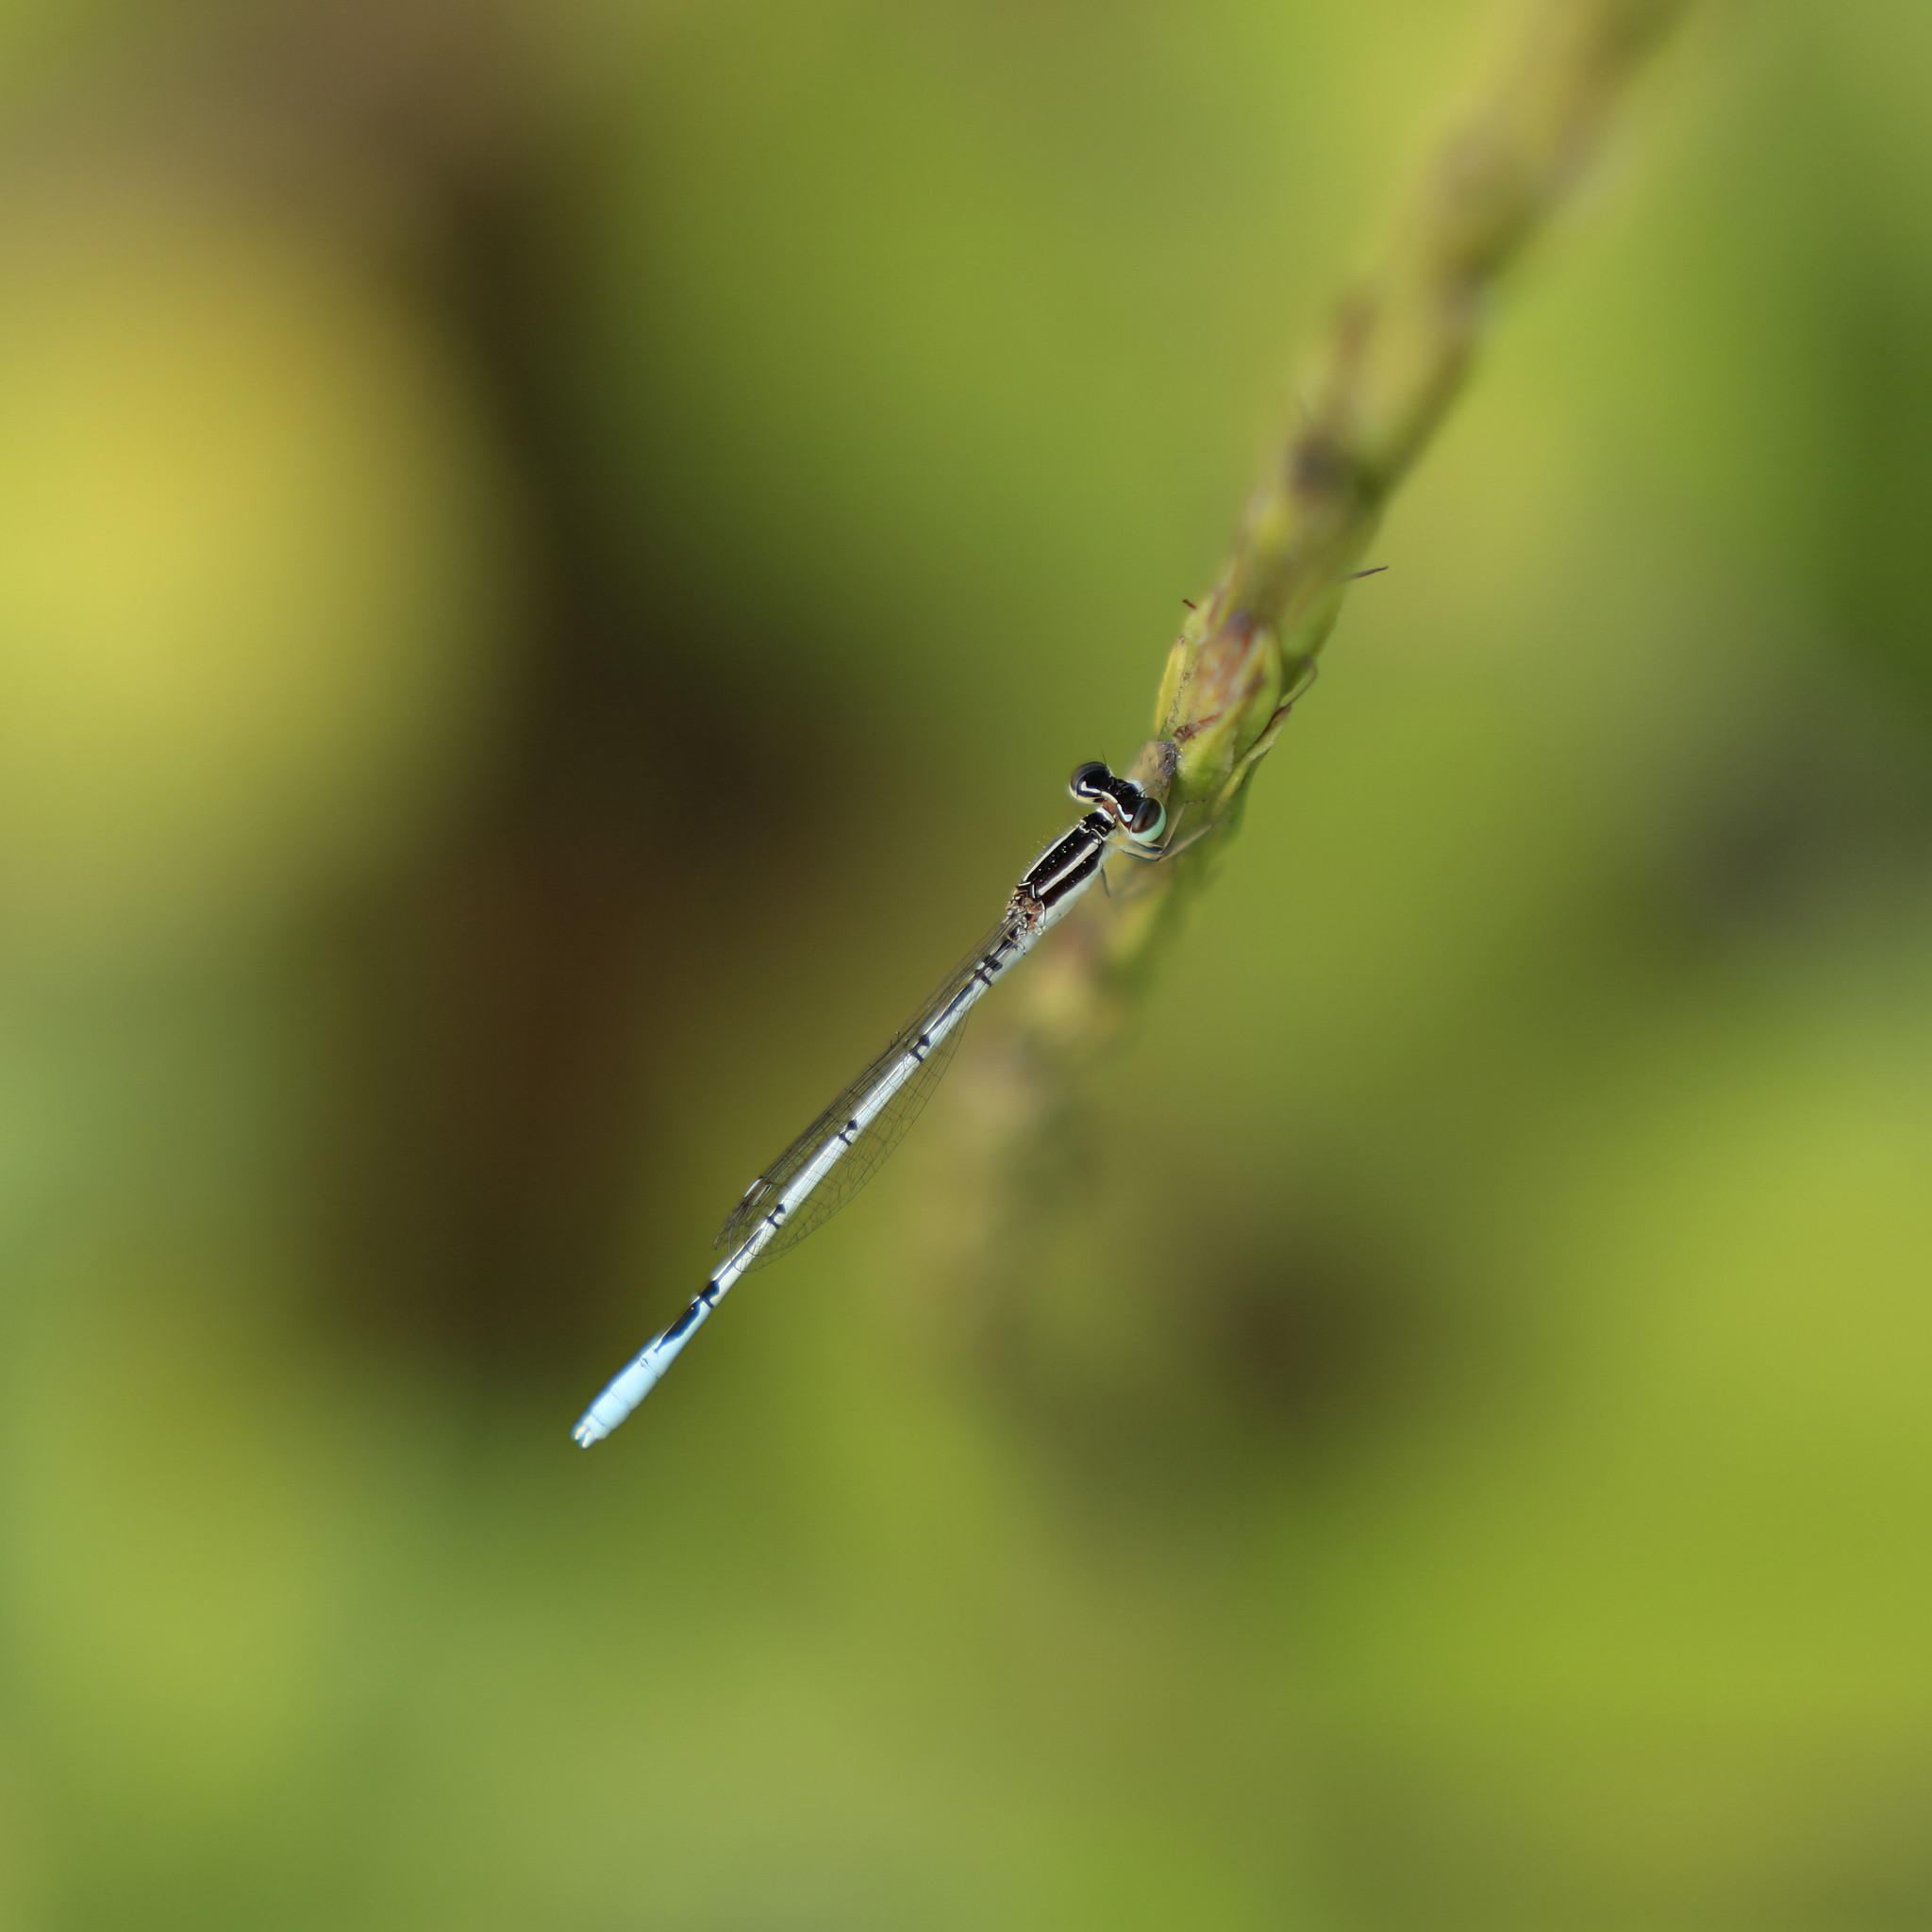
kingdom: Animalia
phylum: Arthropoda
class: Insecta
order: Odonata
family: Coenagrionidae
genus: Agriocnemis
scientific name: Agriocnemis pieris
